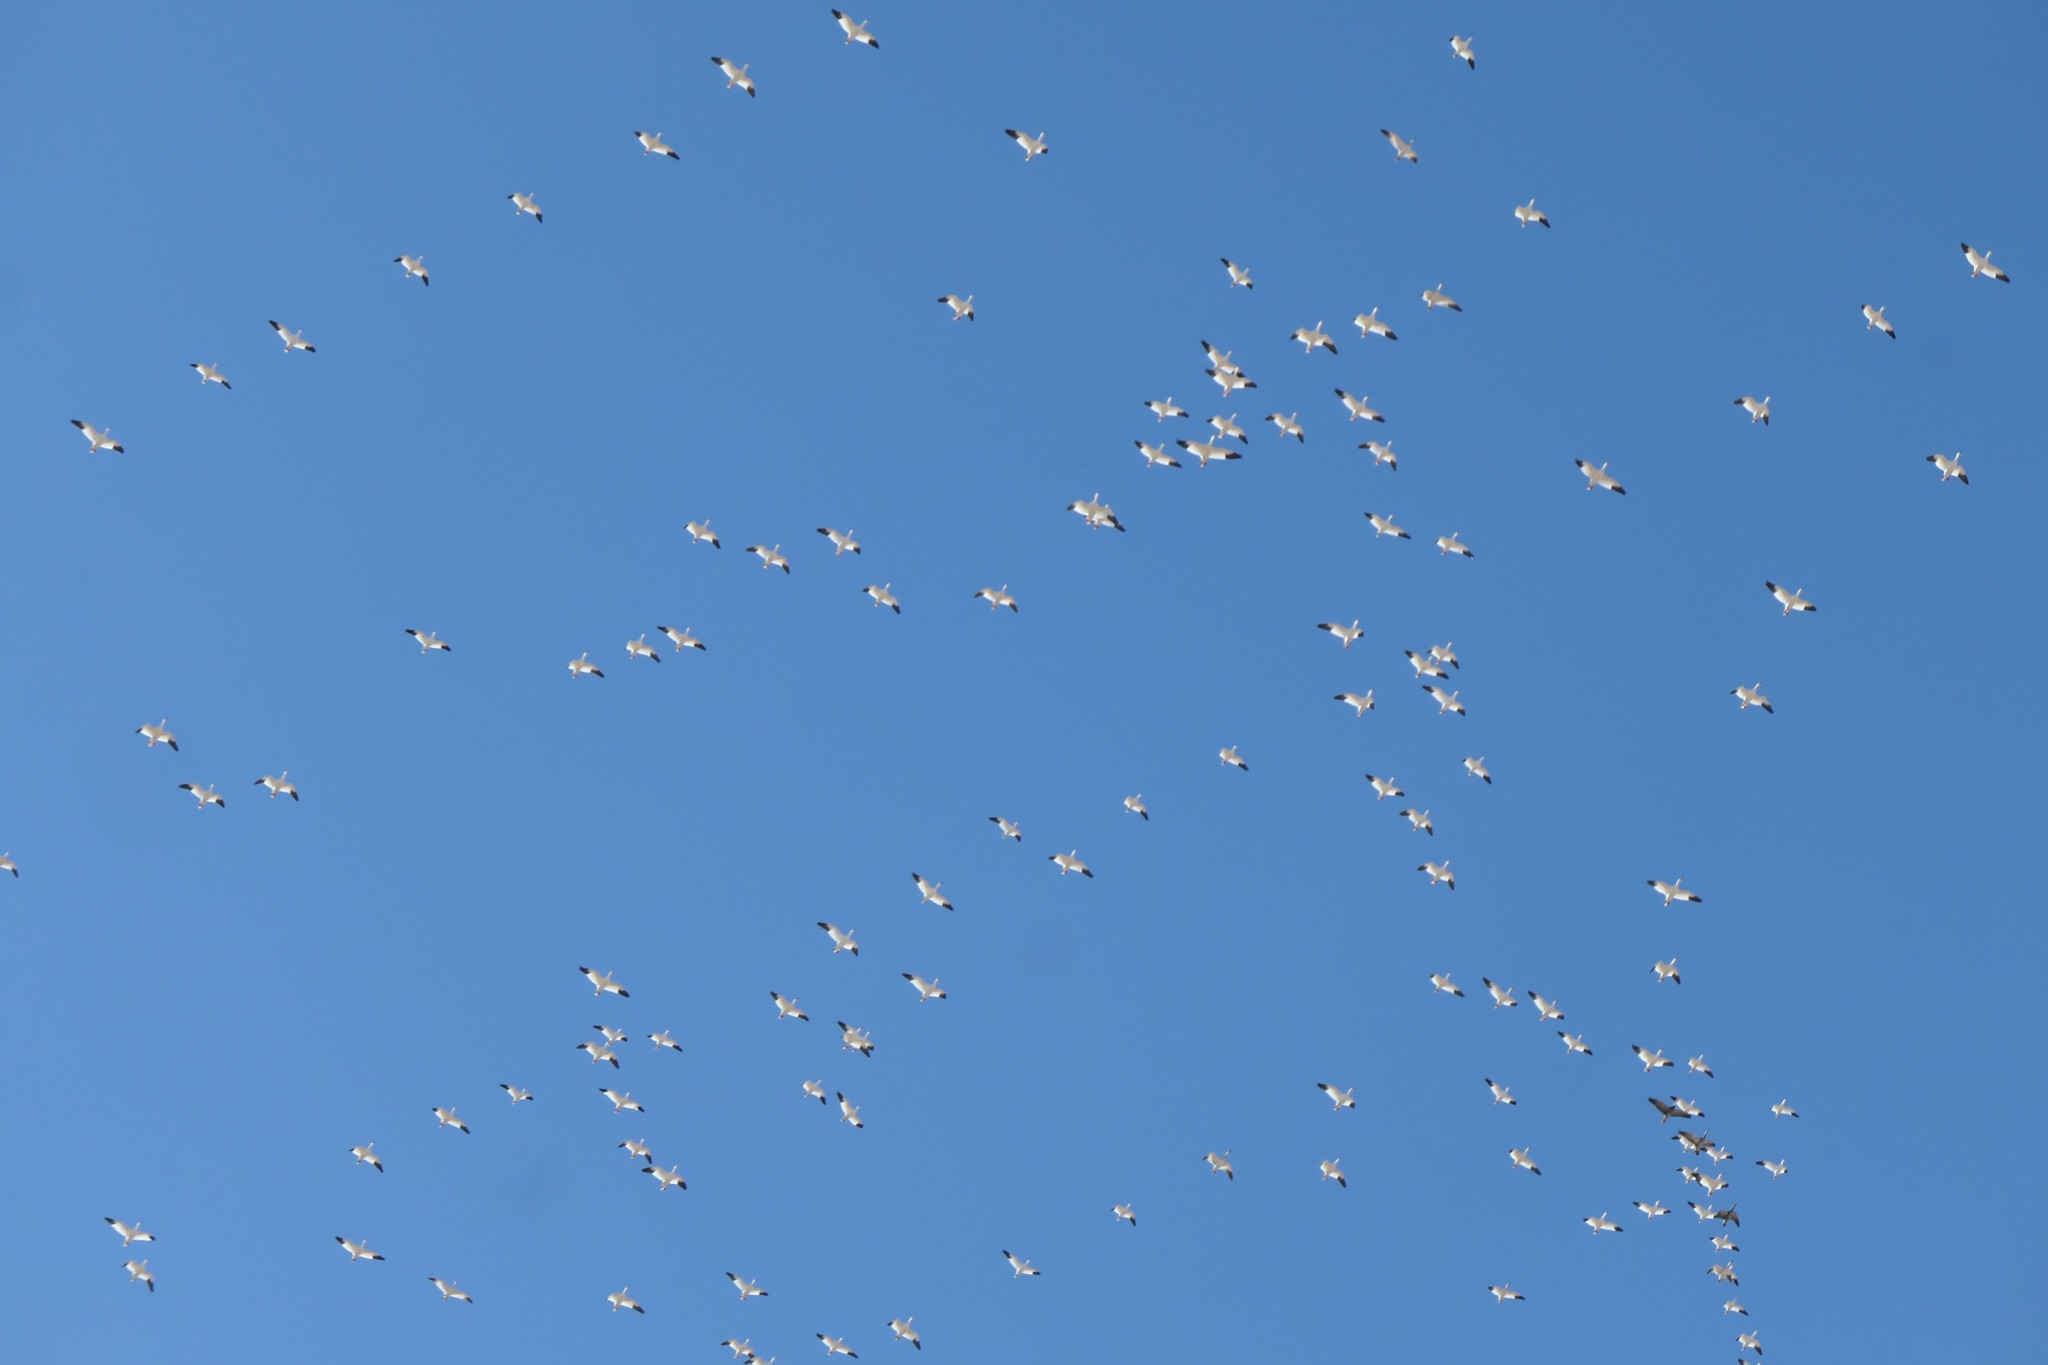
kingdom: Animalia
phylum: Chordata
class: Aves
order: Anseriformes
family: Anatidae
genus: Anser
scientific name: Anser caerulescens
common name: Snow goose
